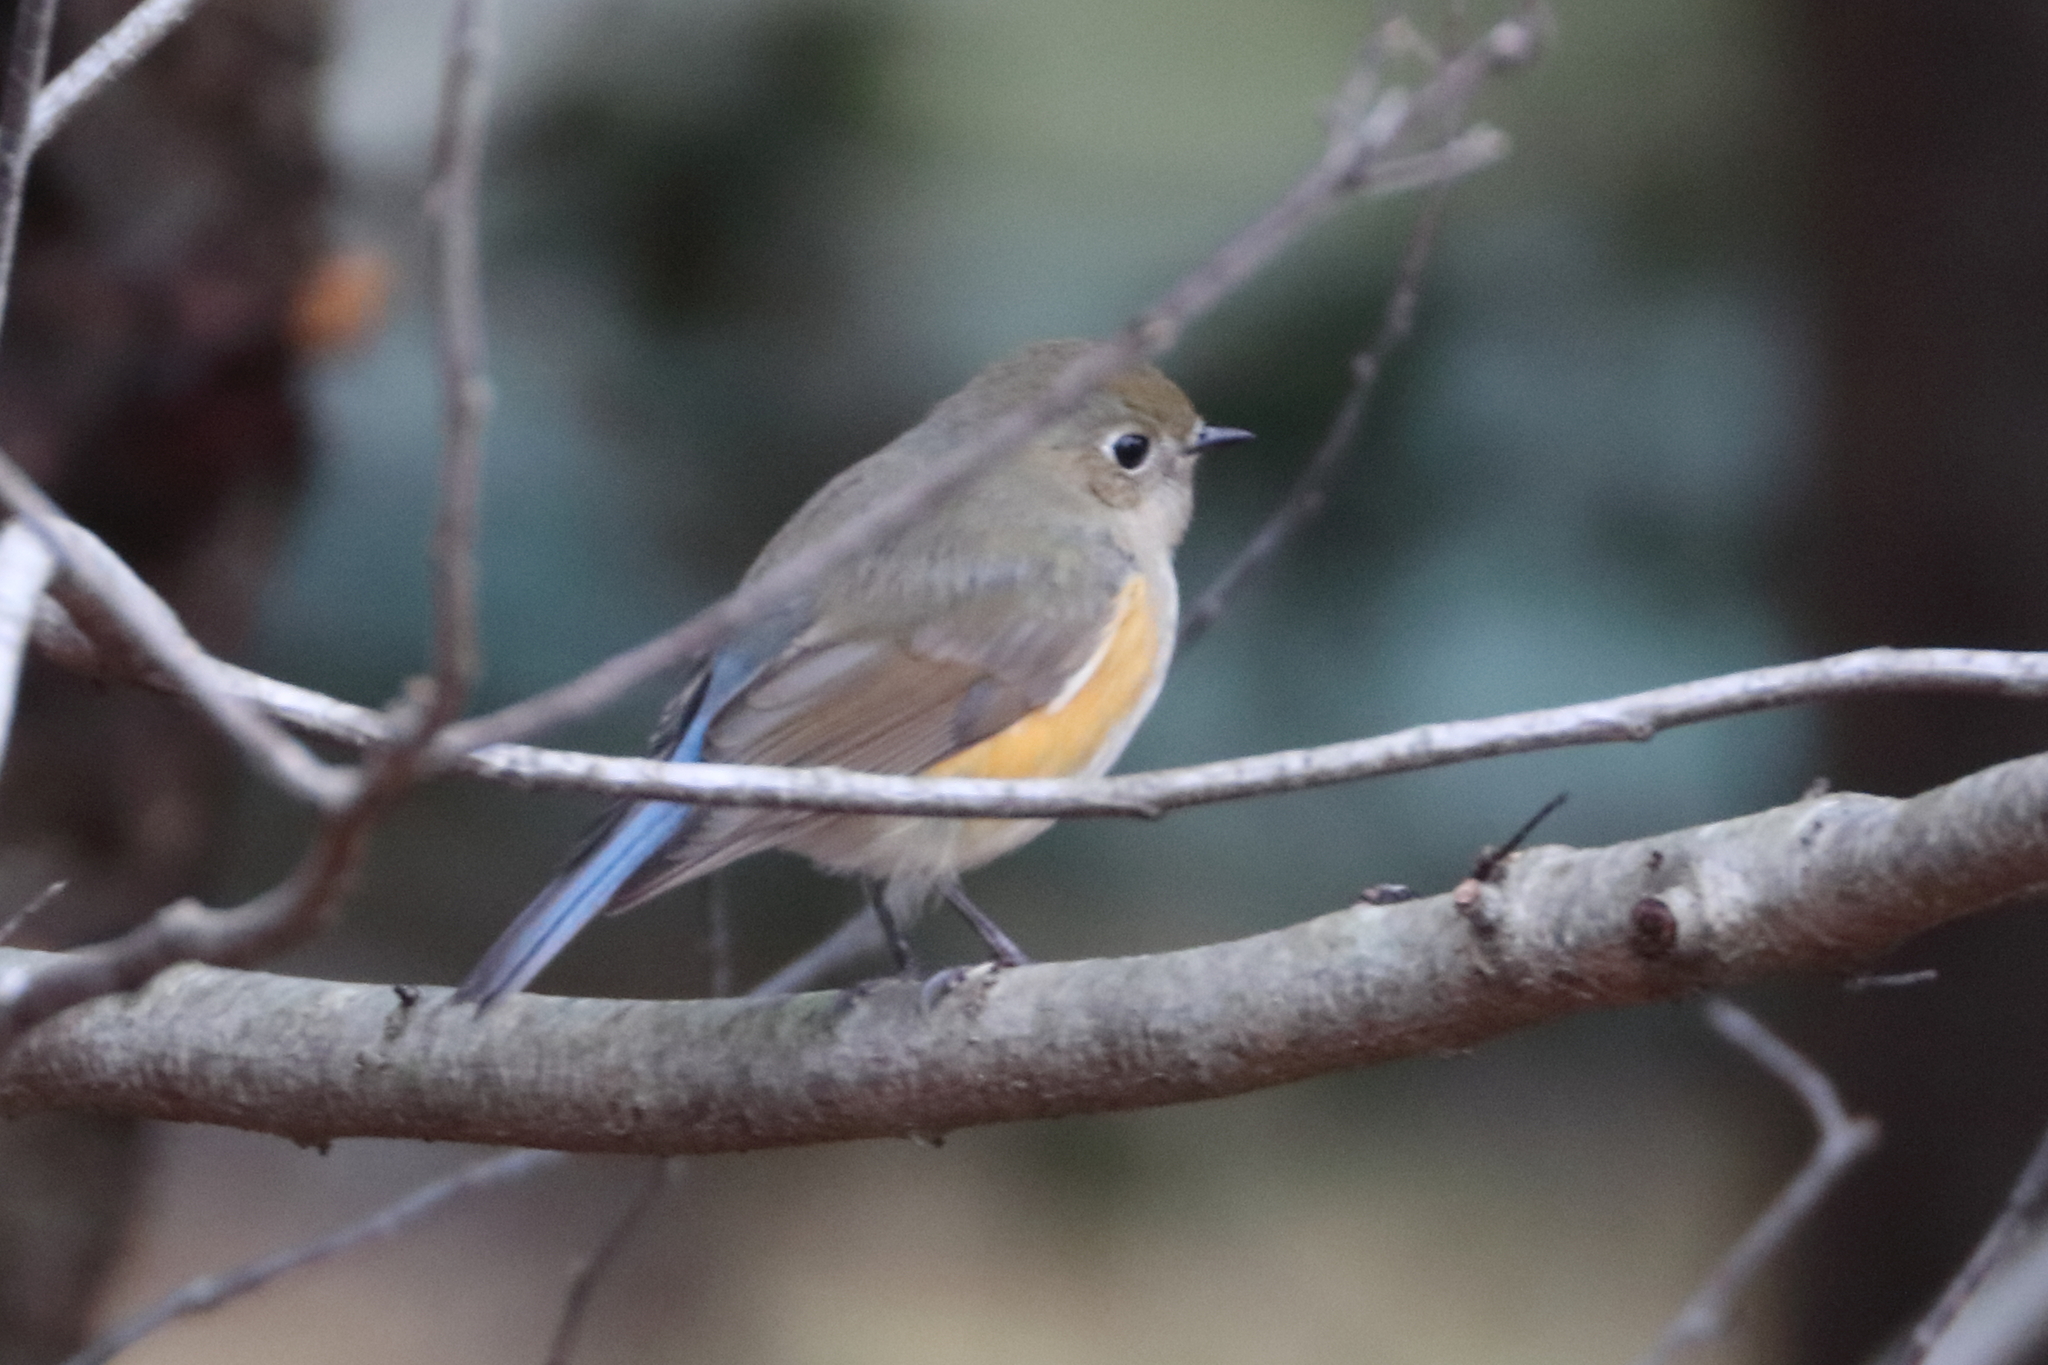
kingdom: Animalia
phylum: Chordata
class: Aves
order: Passeriformes
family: Muscicapidae
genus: Tarsiger
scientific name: Tarsiger cyanurus
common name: Red-flanked bluetail
